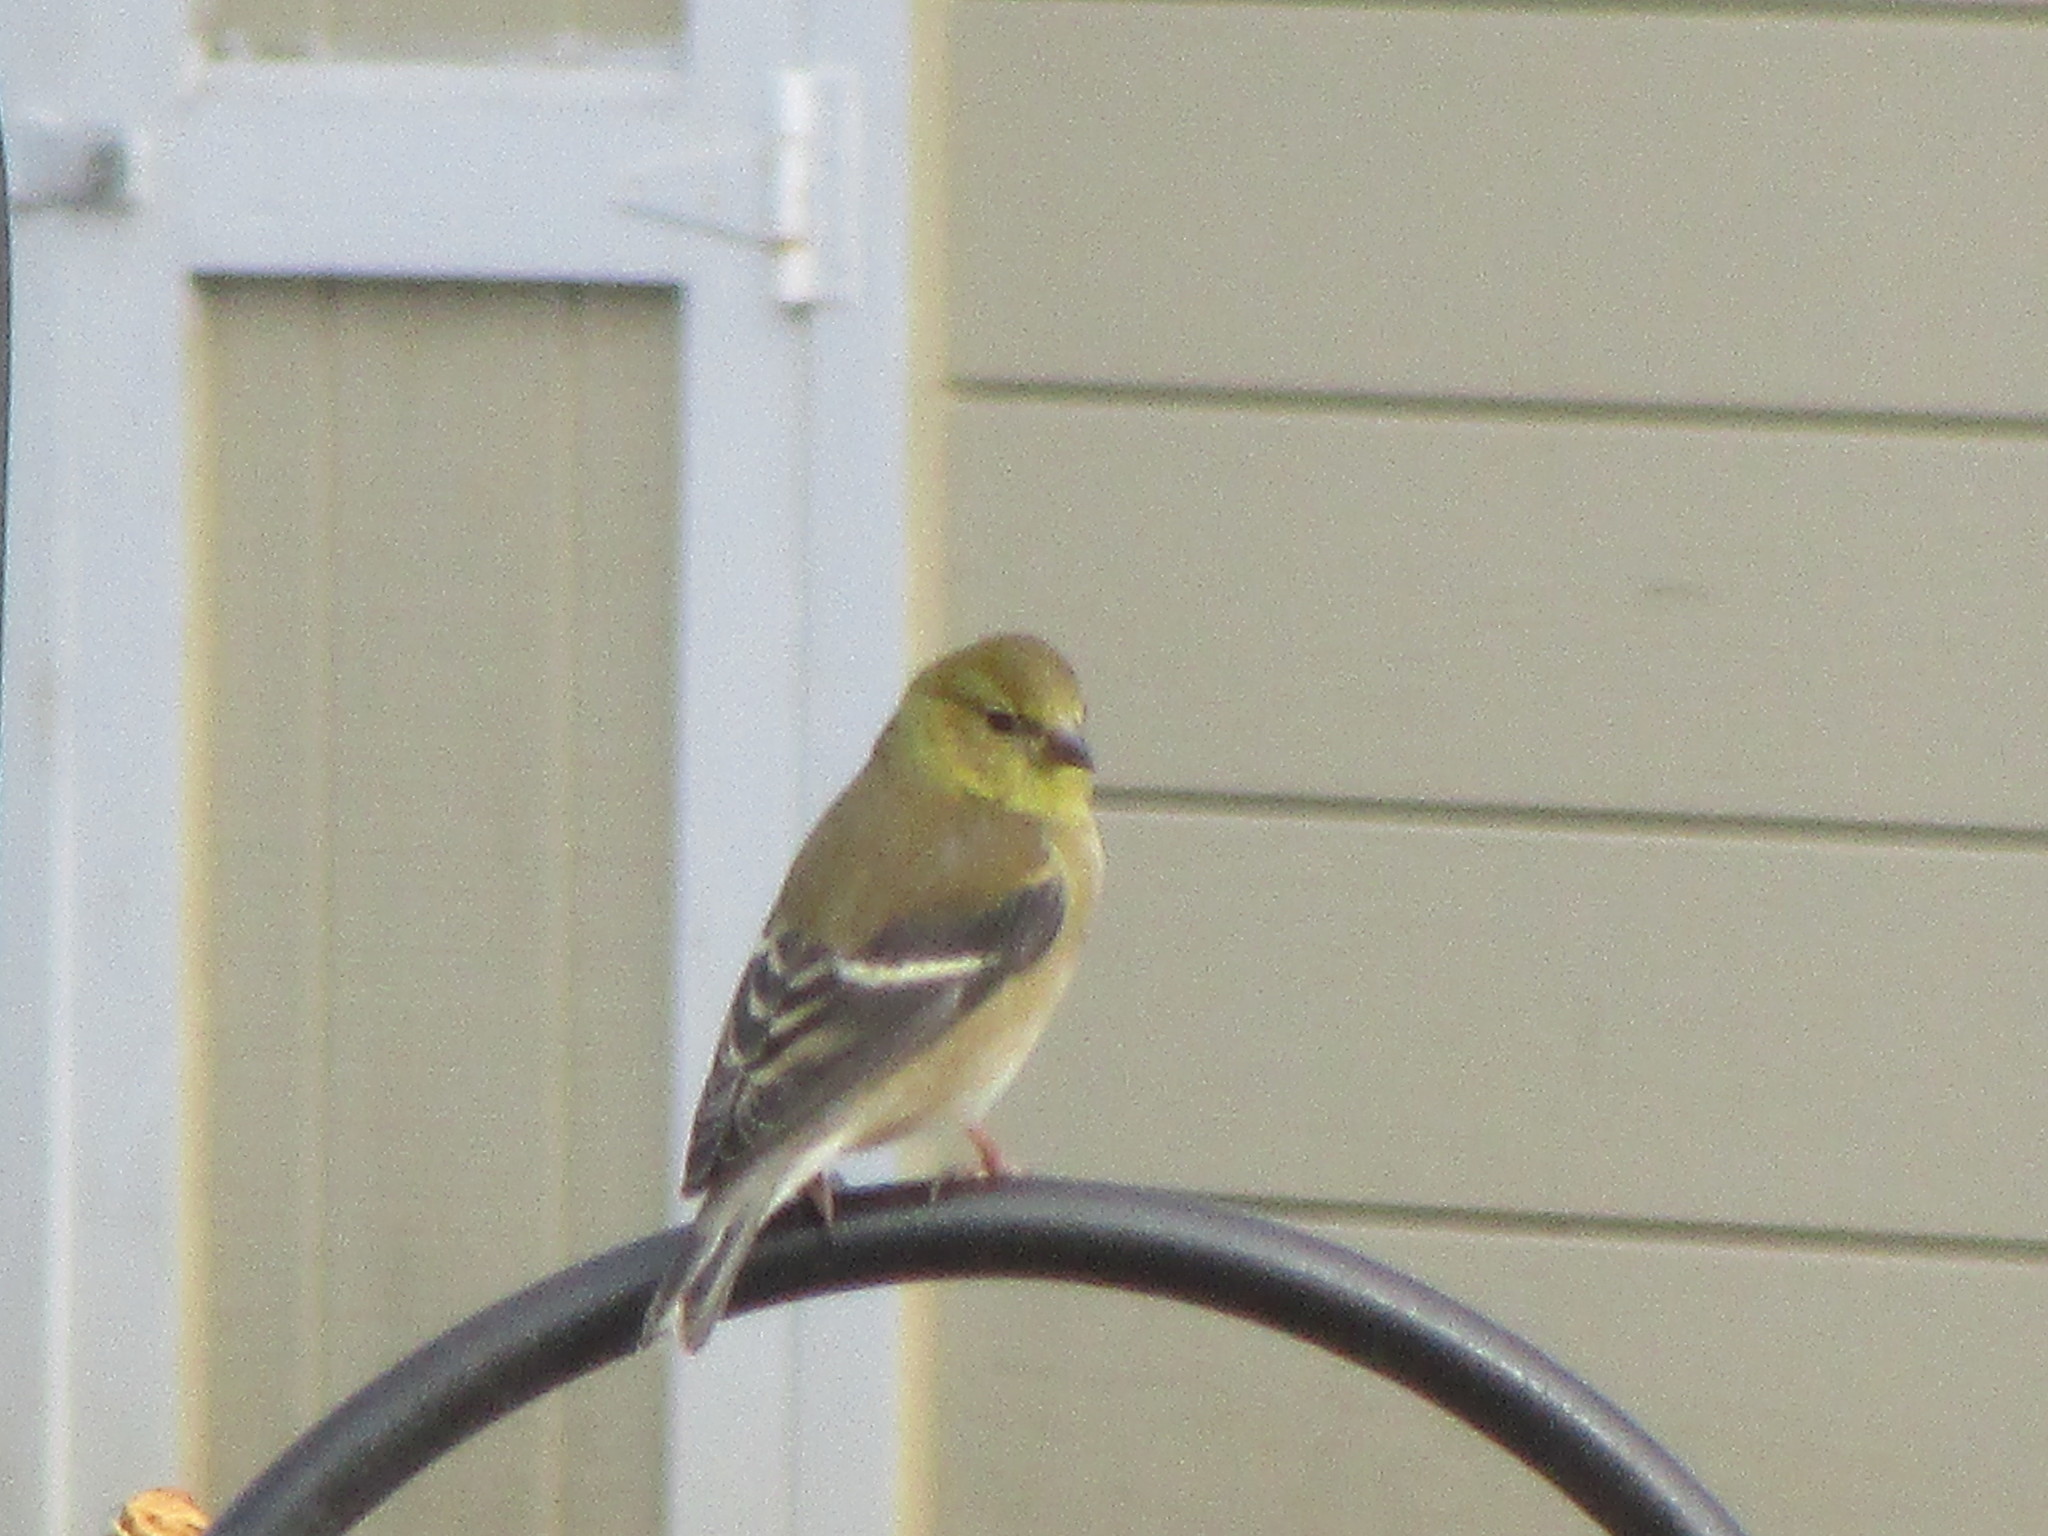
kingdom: Animalia
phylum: Chordata
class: Aves
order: Passeriformes
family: Fringillidae
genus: Spinus
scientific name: Spinus tristis
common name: American goldfinch
